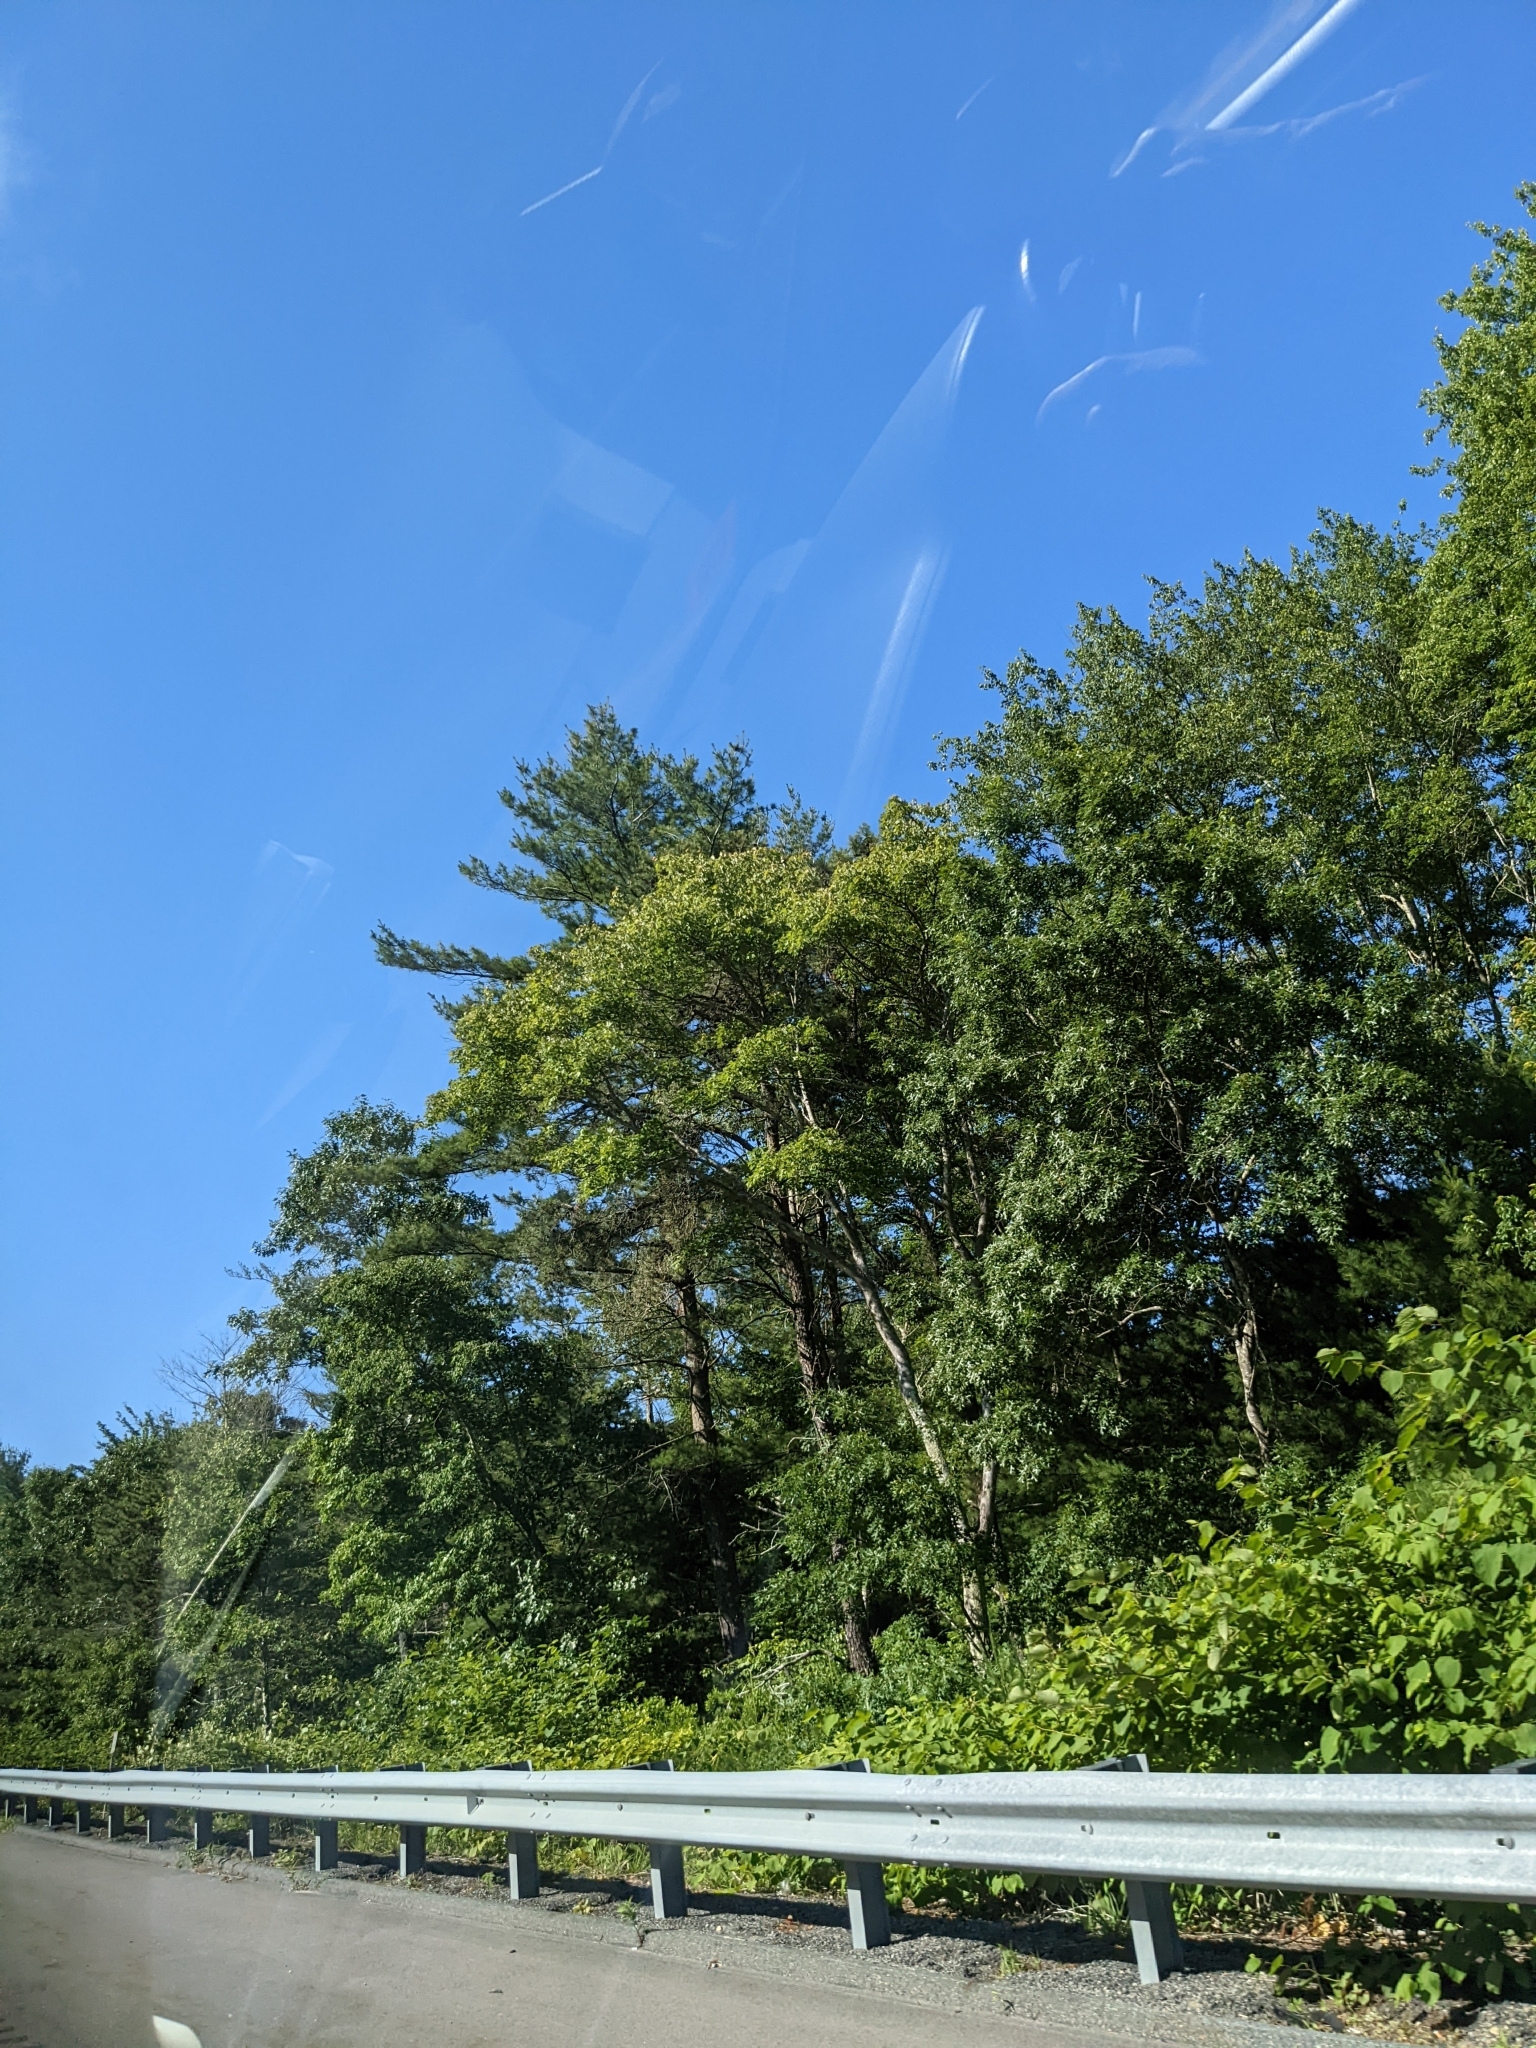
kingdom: Plantae
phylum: Tracheophyta
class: Pinopsida
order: Pinales
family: Pinaceae
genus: Pinus
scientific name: Pinus strobus
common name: Weymouth pine
